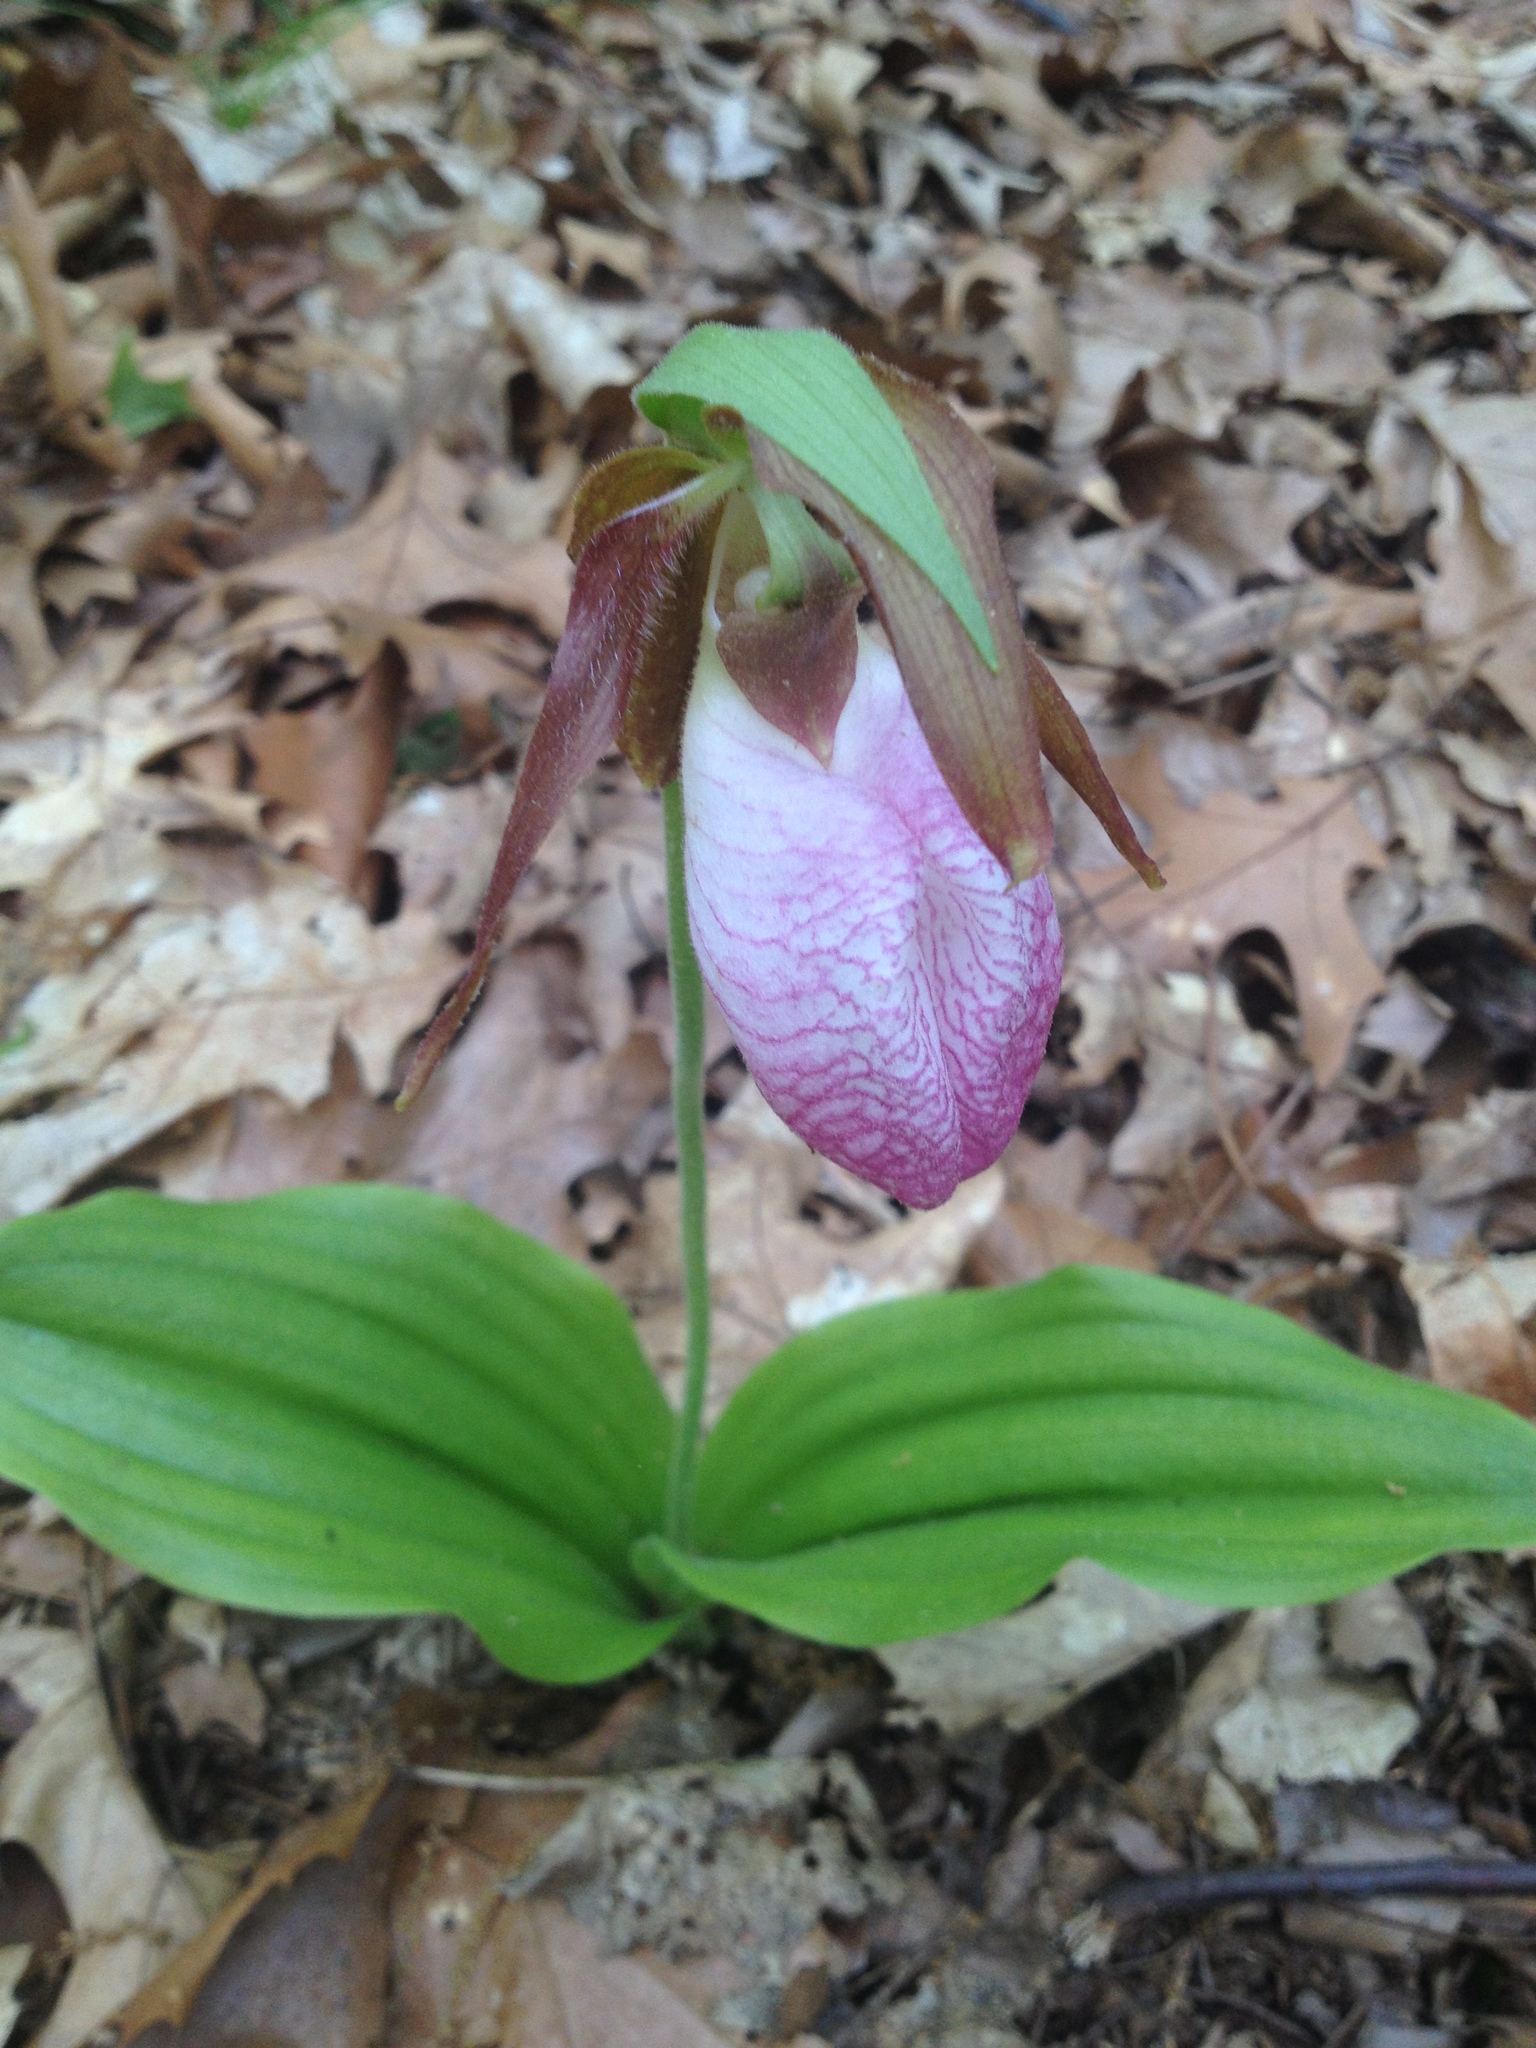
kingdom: Plantae
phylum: Tracheophyta
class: Liliopsida
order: Asparagales
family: Orchidaceae
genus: Cypripedium
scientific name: Cypripedium acaule
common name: Pink lady's-slipper
